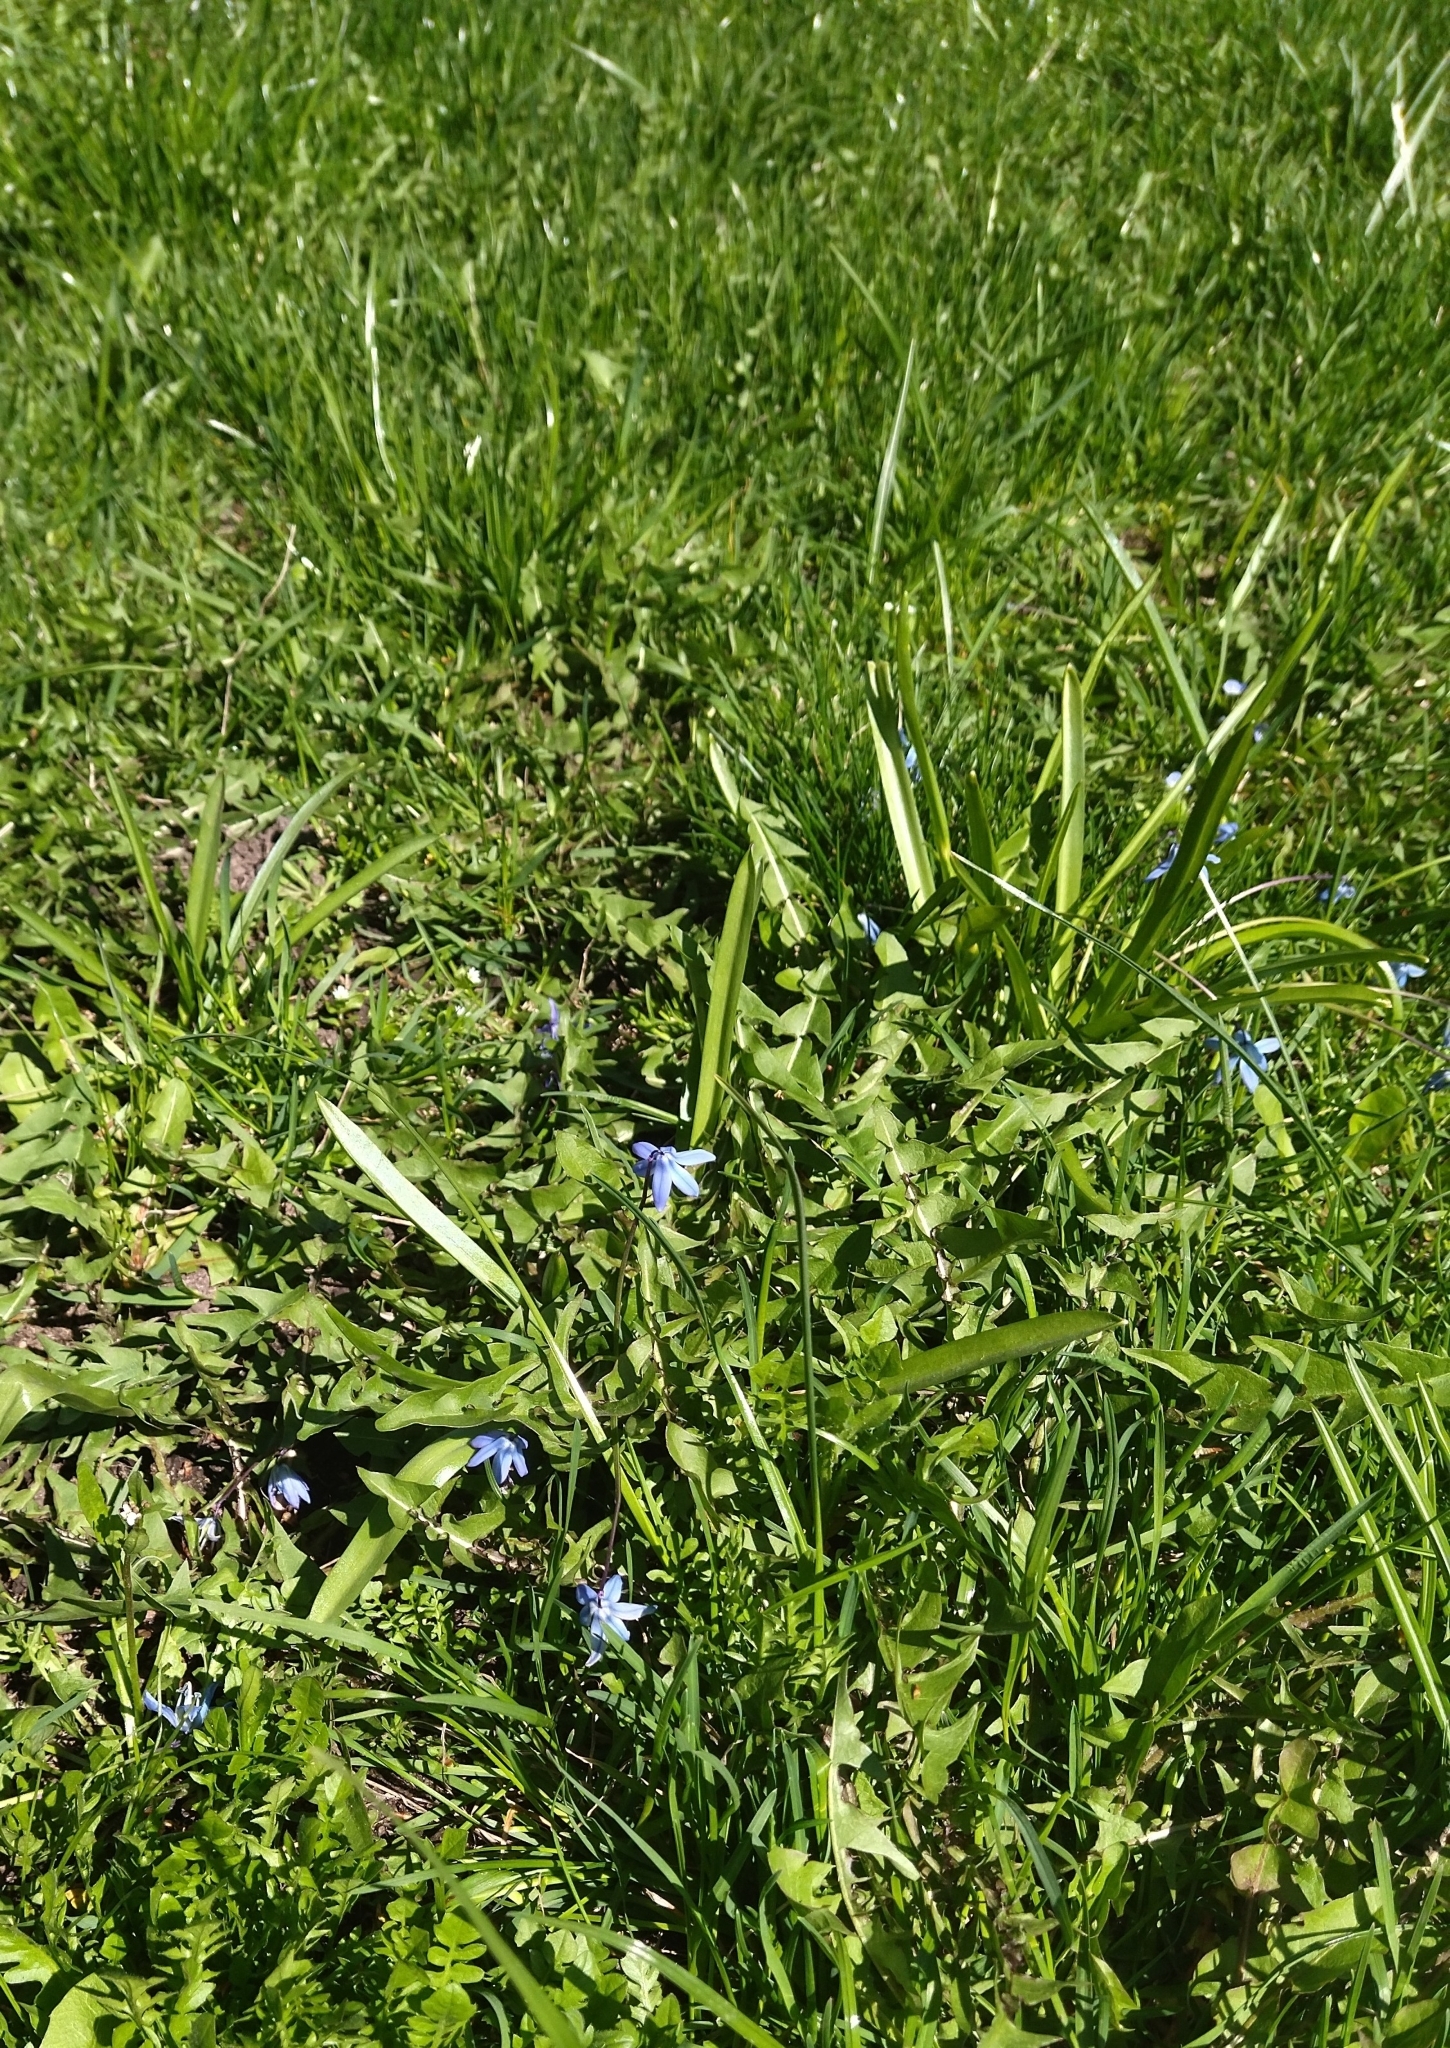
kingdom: Plantae
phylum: Tracheophyta
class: Liliopsida
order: Asparagales
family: Asparagaceae
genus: Scilla
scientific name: Scilla siberica
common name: Siberian squill
